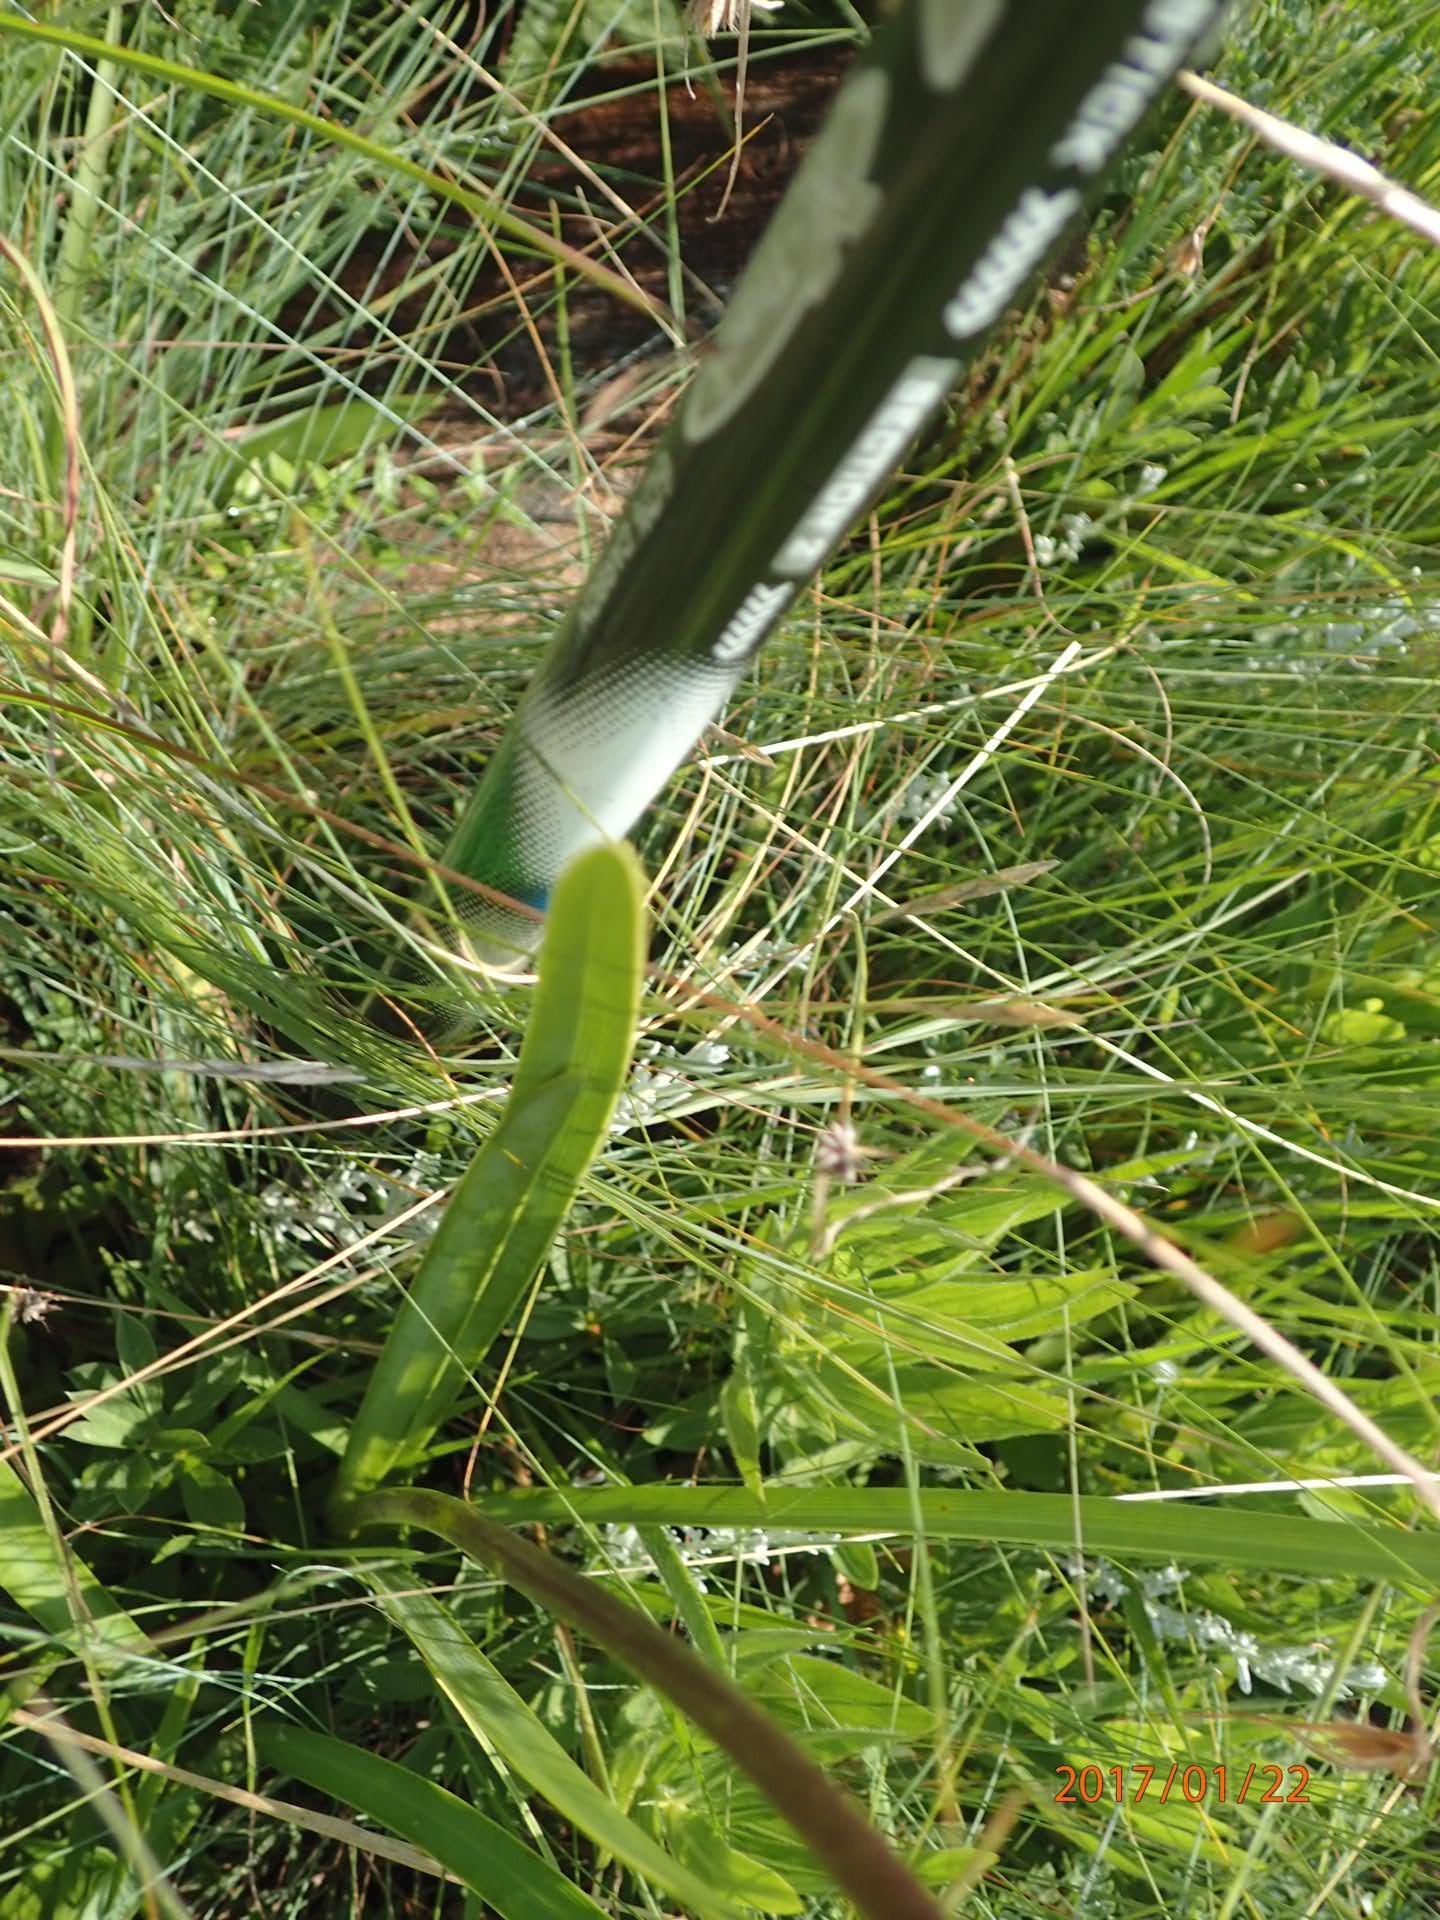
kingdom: Plantae
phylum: Tracheophyta
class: Liliopsida
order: Asparagales
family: Amaryllidaceae
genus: Agapanthus
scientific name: Agapanthus campanulatus
